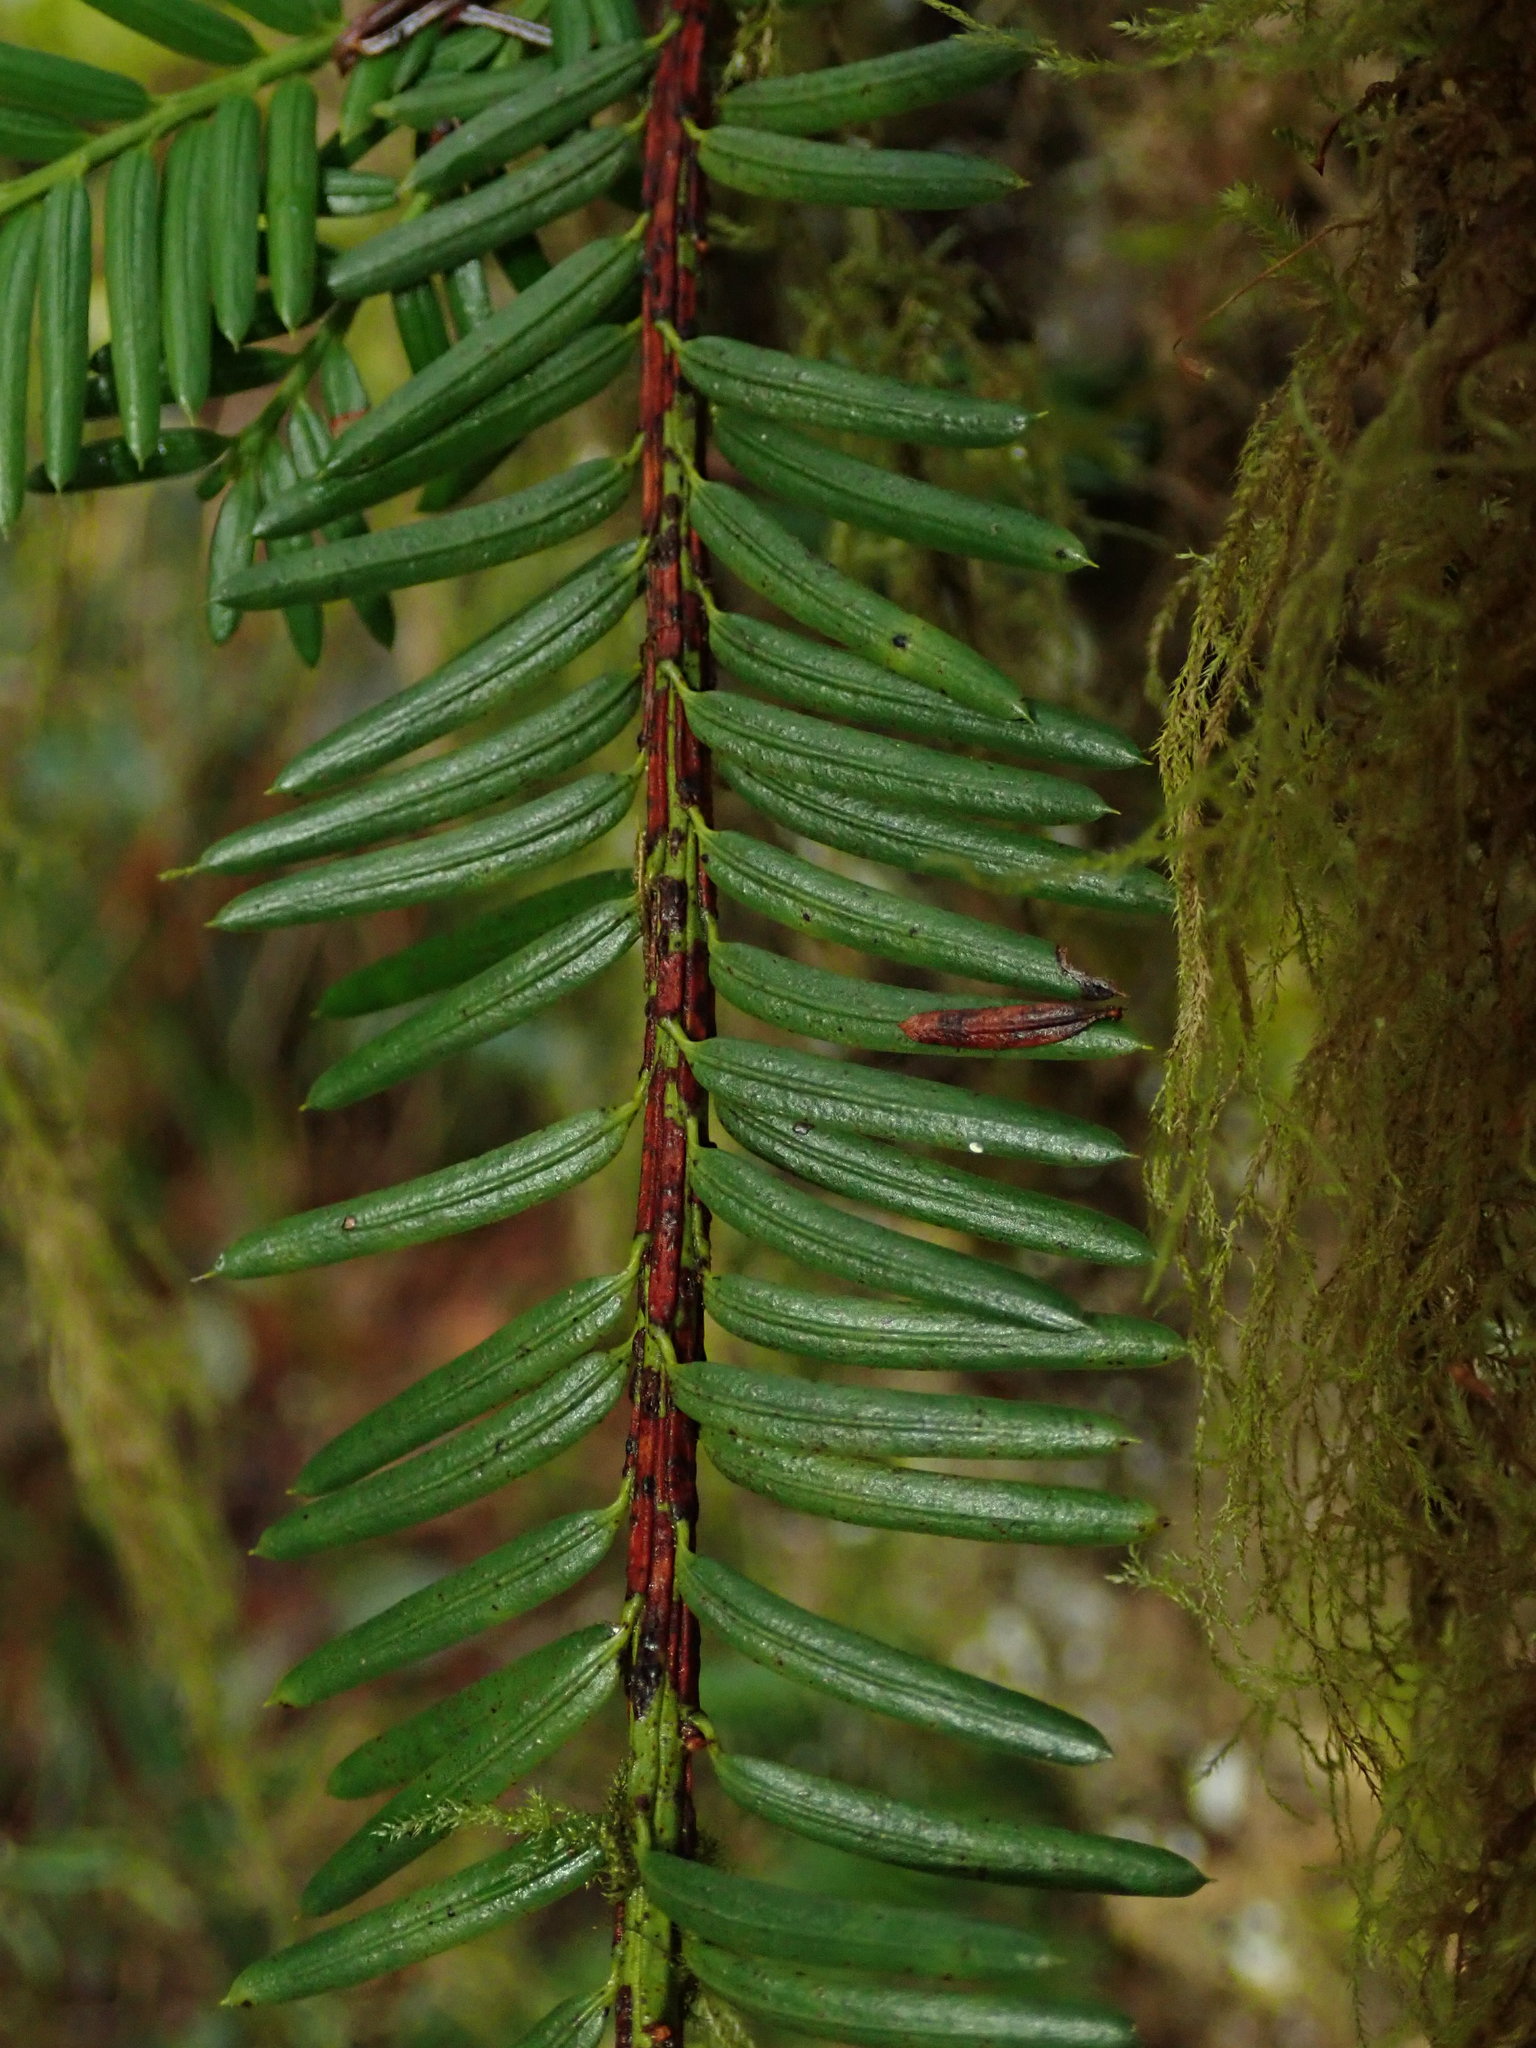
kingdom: Plantae
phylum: Tracheophyta
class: Pinopsida
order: Pinales
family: Taxaceae
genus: Taxus
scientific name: Taxus brevifolia
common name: Pacific yew
